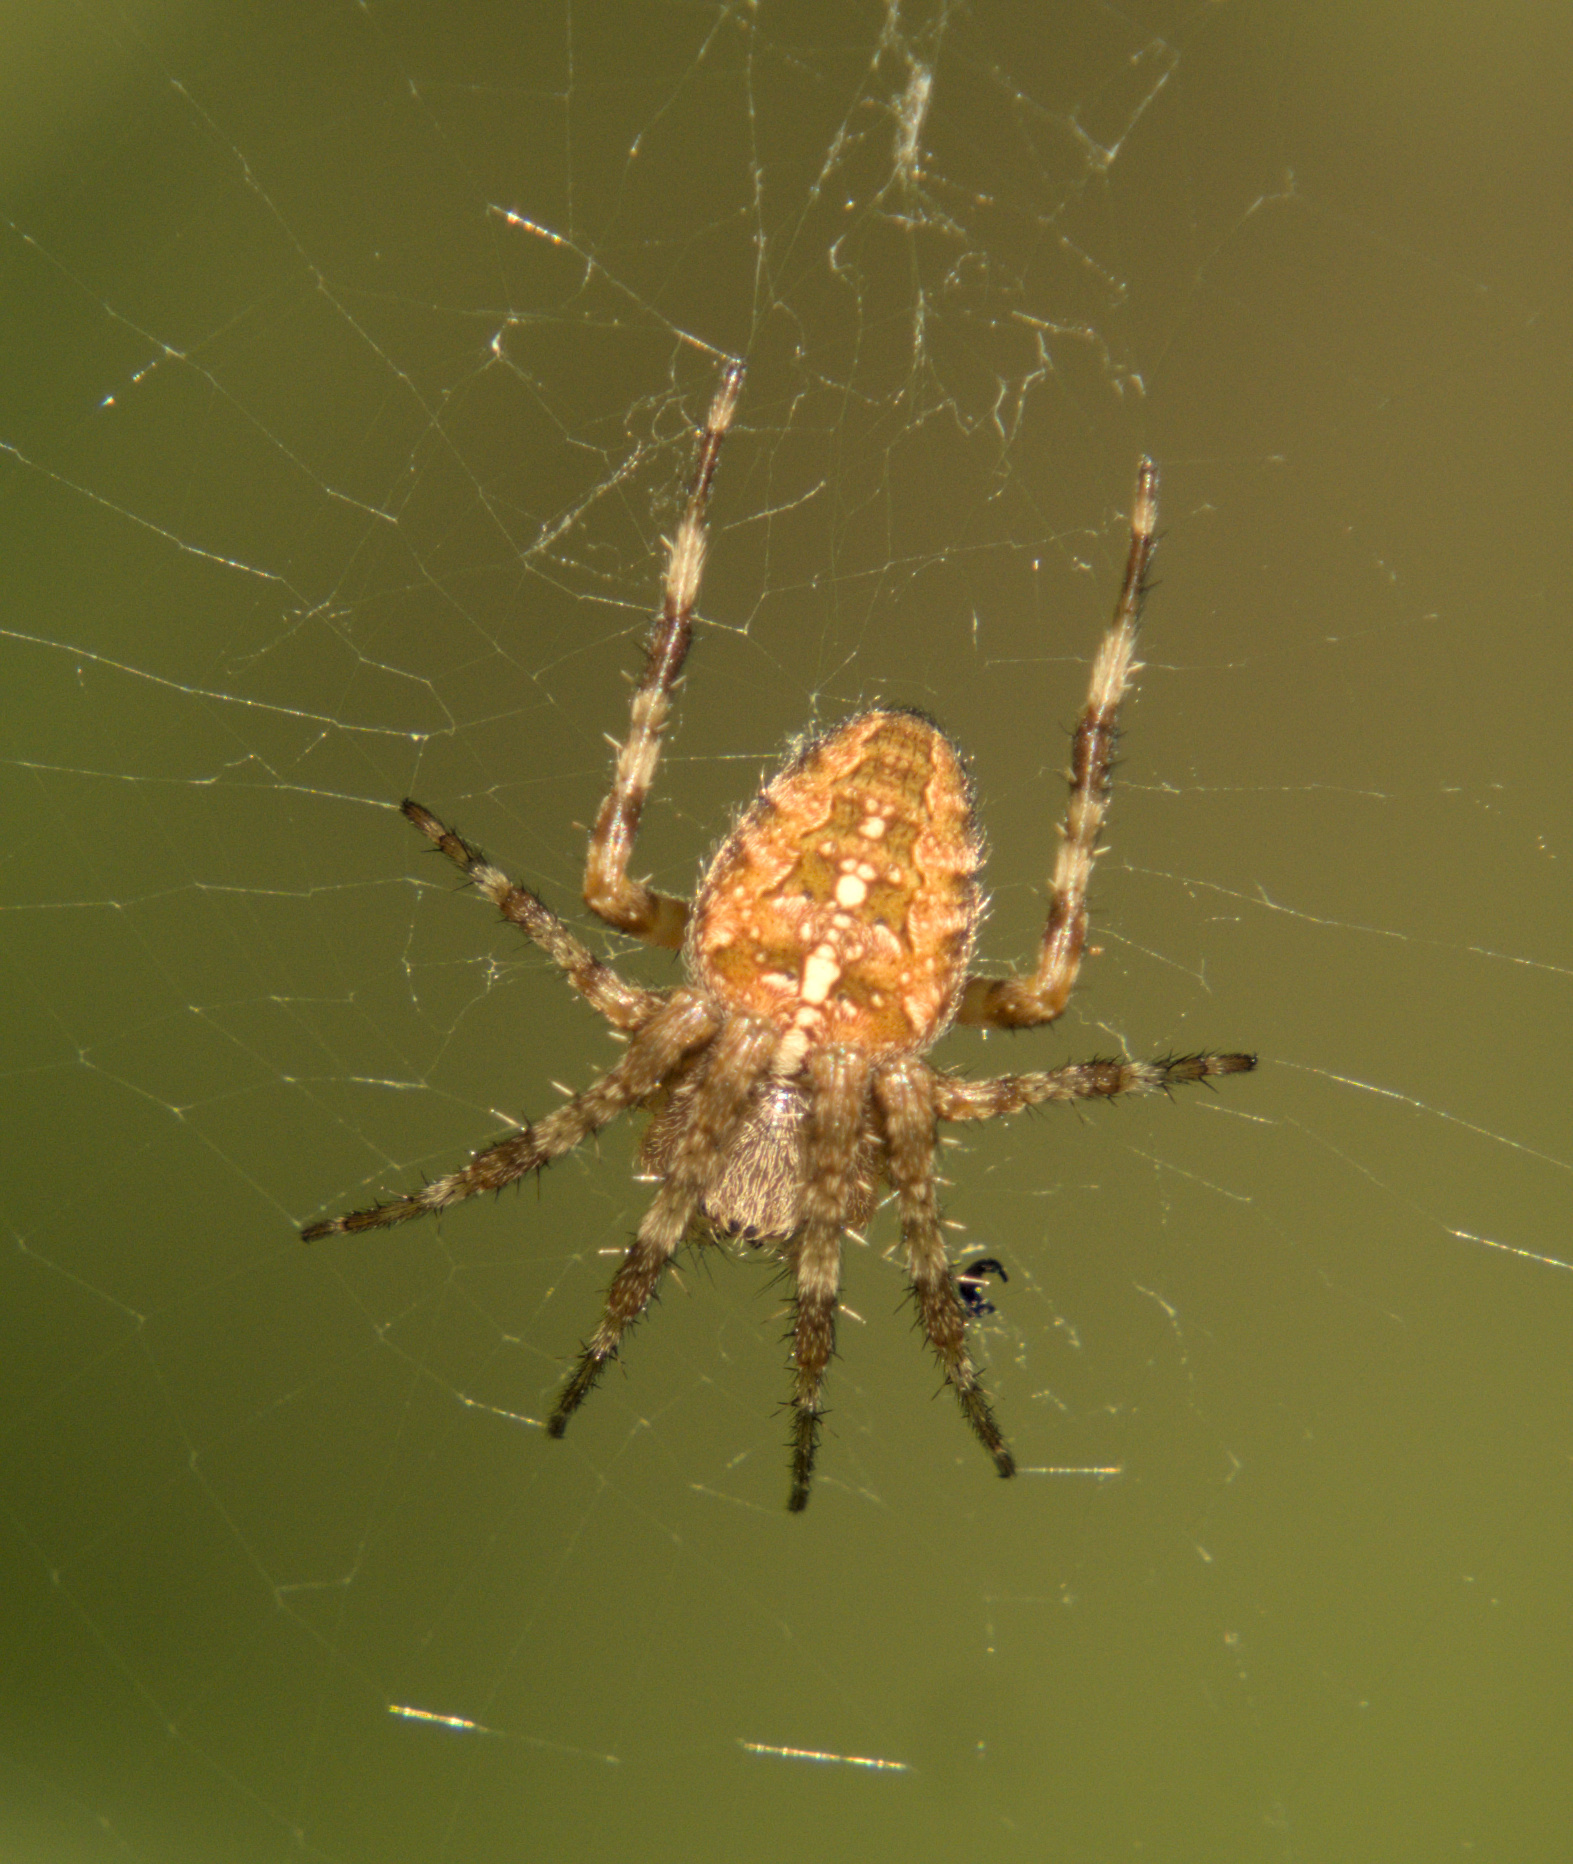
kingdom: Animalia
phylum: Arthropoda
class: Arachnida
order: Araneae
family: Araneidae
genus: Araneus
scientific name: Araneus diadematus
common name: Cross orbweaver
